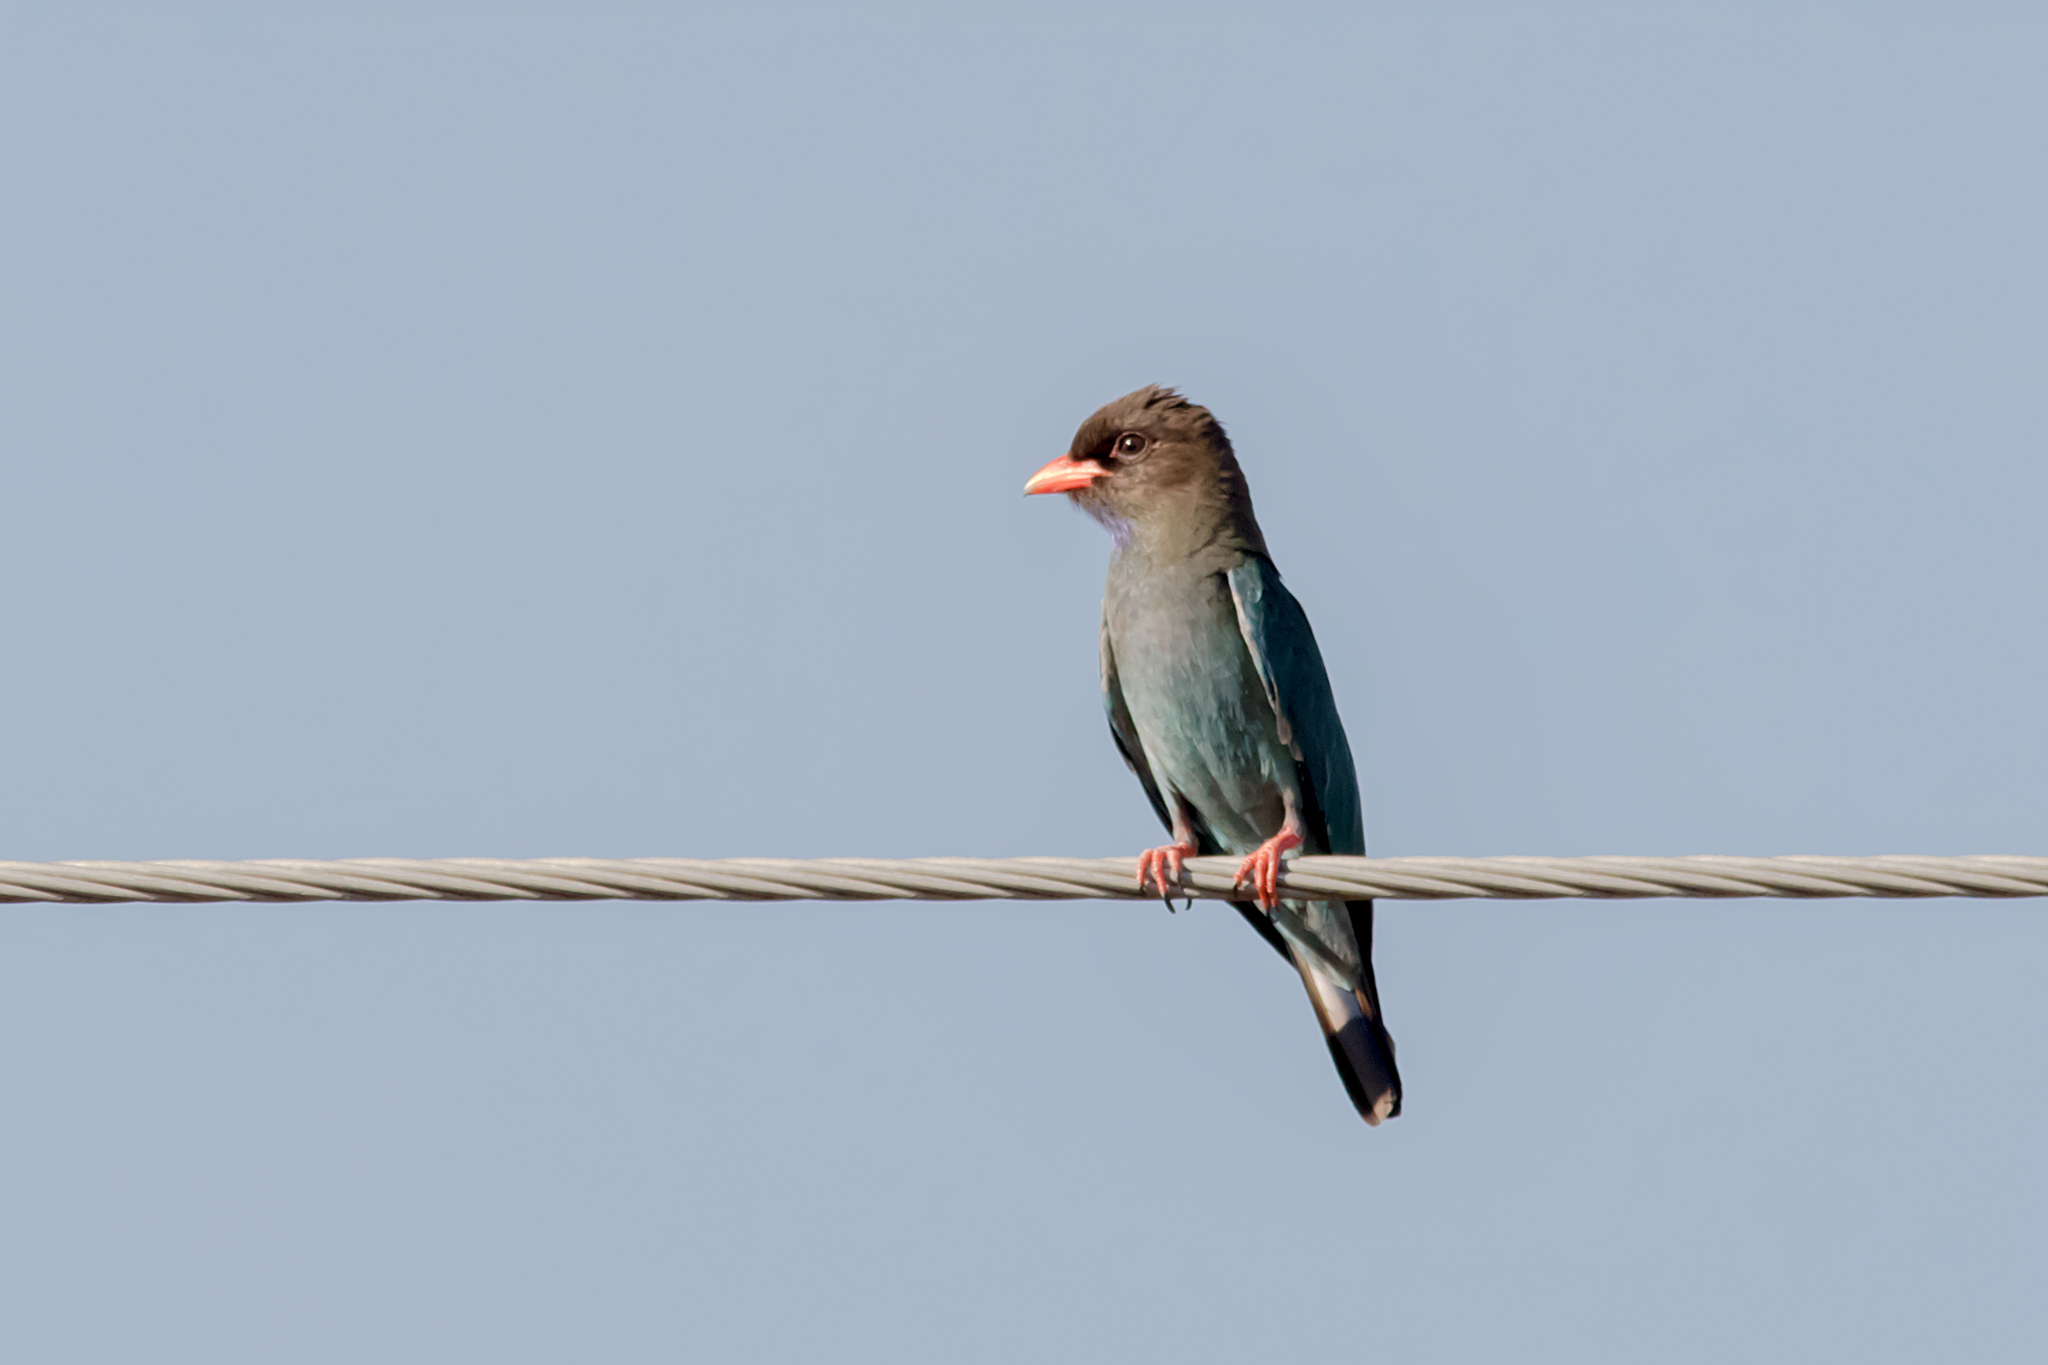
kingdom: Animalia
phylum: Chordata
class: Aves
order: Coraciiformes
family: Coraciidae
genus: Eurystomus
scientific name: Eurystomus orientalis
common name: Oriental dollarbird
